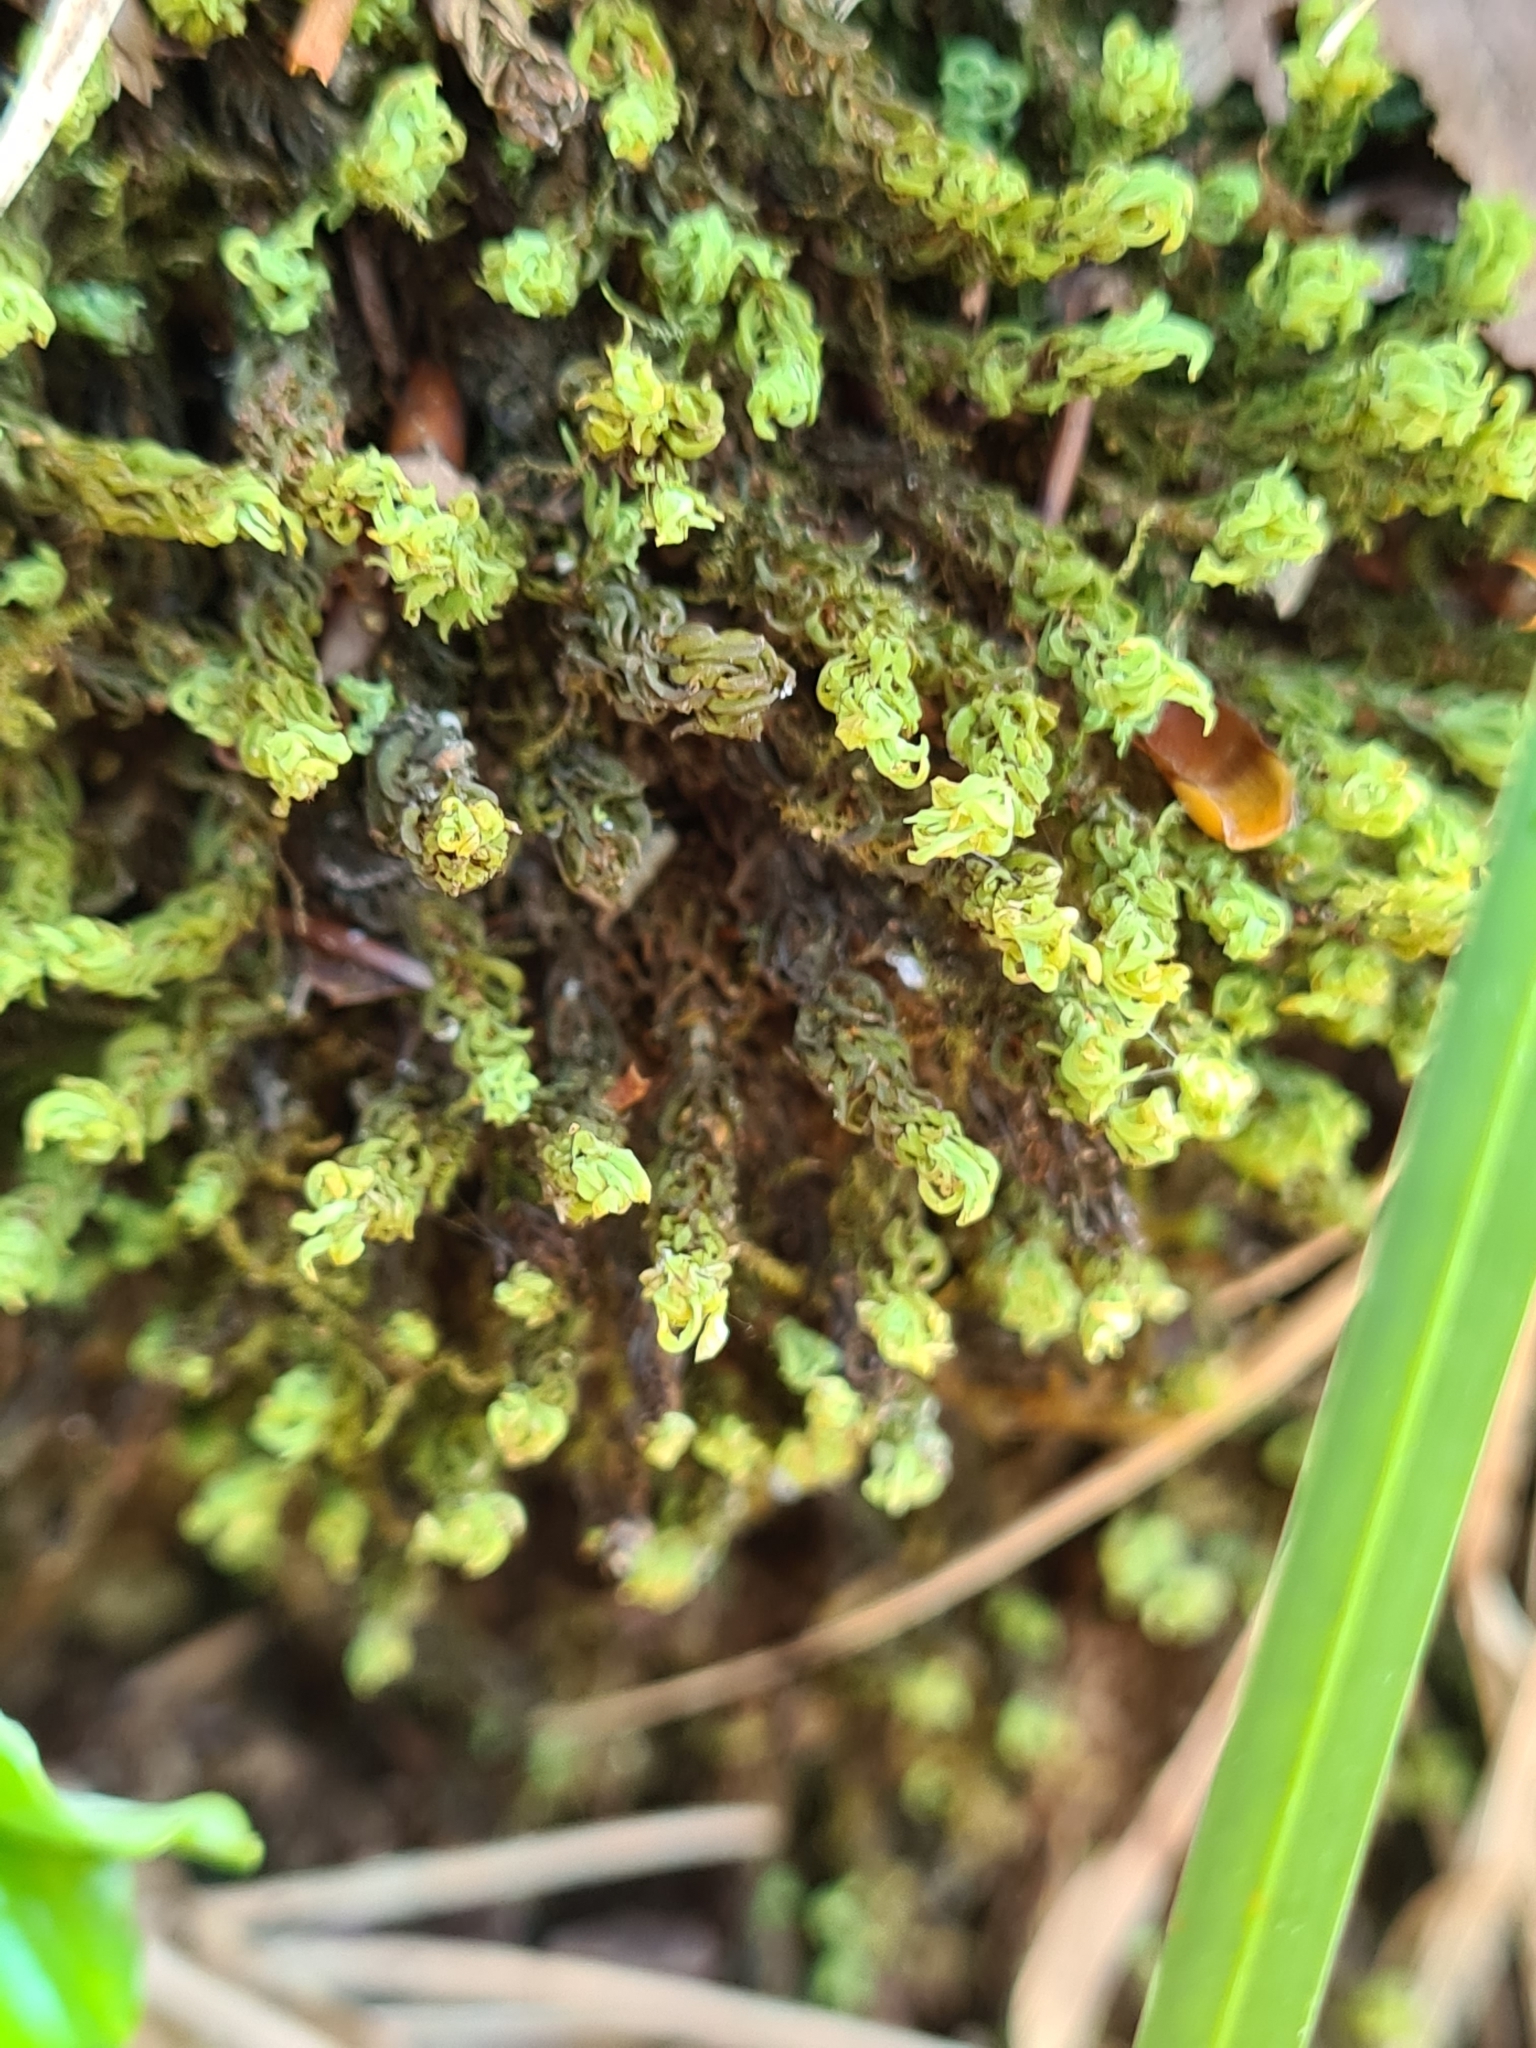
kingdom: Plantae
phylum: Bryophyta
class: Bryopsida
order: Encalyptales
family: Encalyptaceae
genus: Encalypta
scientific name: Encalypta streptocarpa
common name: Spiral extinguisher-moss
